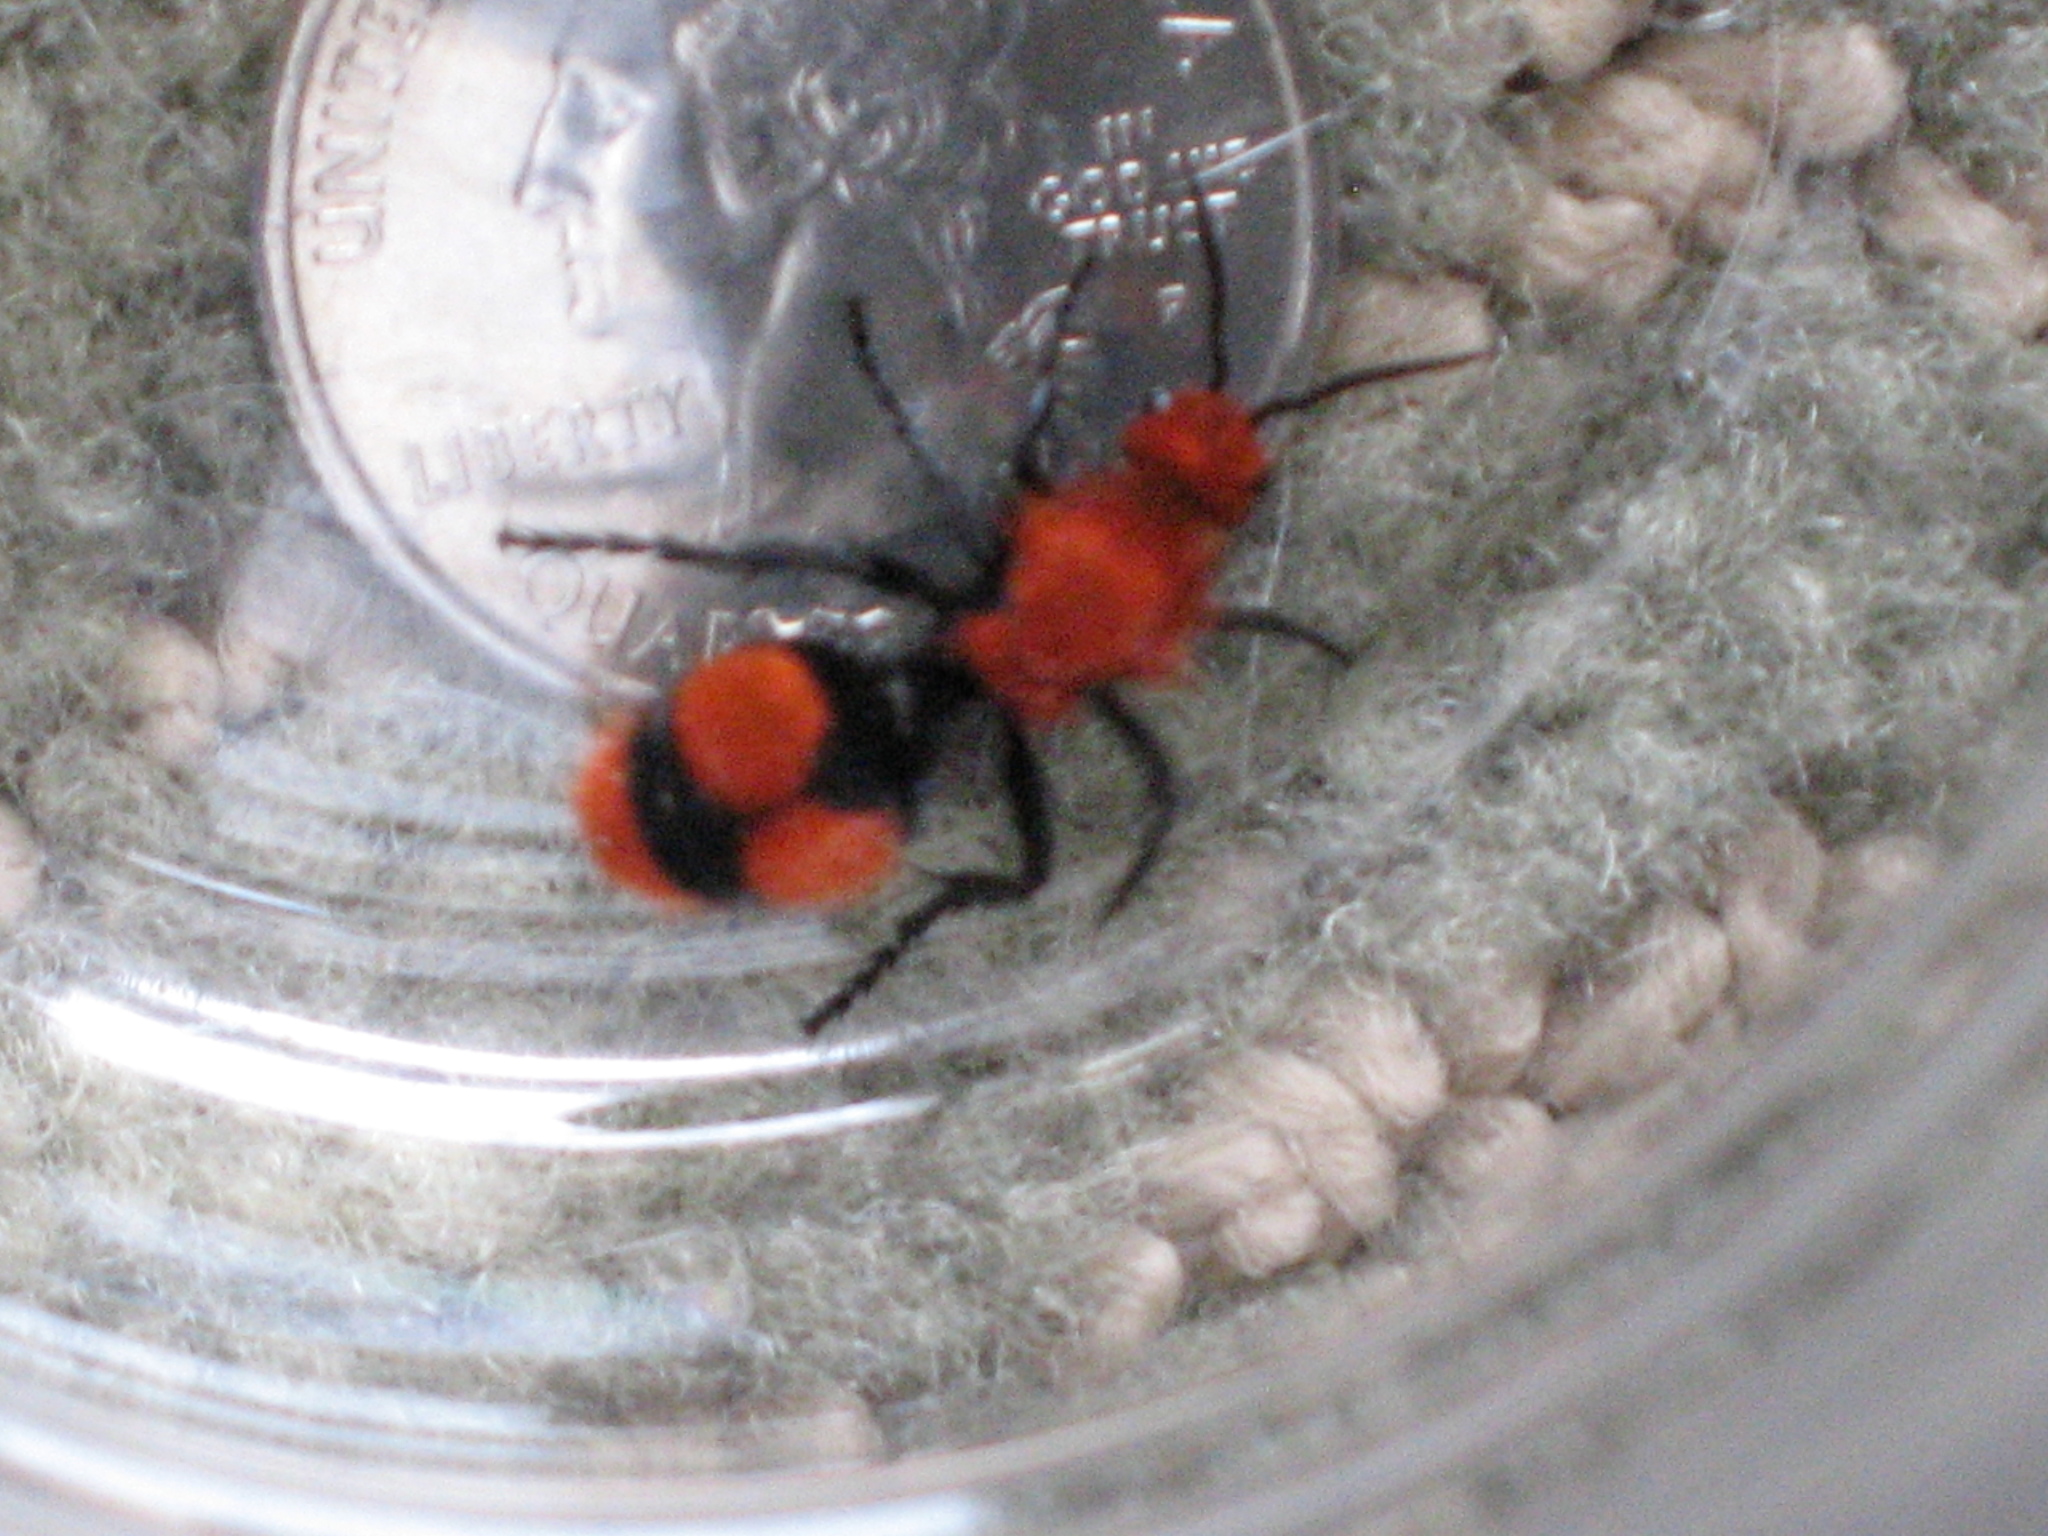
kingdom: Animalia
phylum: Arthropoda
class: Insecta
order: Hymenoptera
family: Mutillidae
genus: Dasymutilla
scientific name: Dasymutilla occidentalis
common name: Common eastern velvet ant
